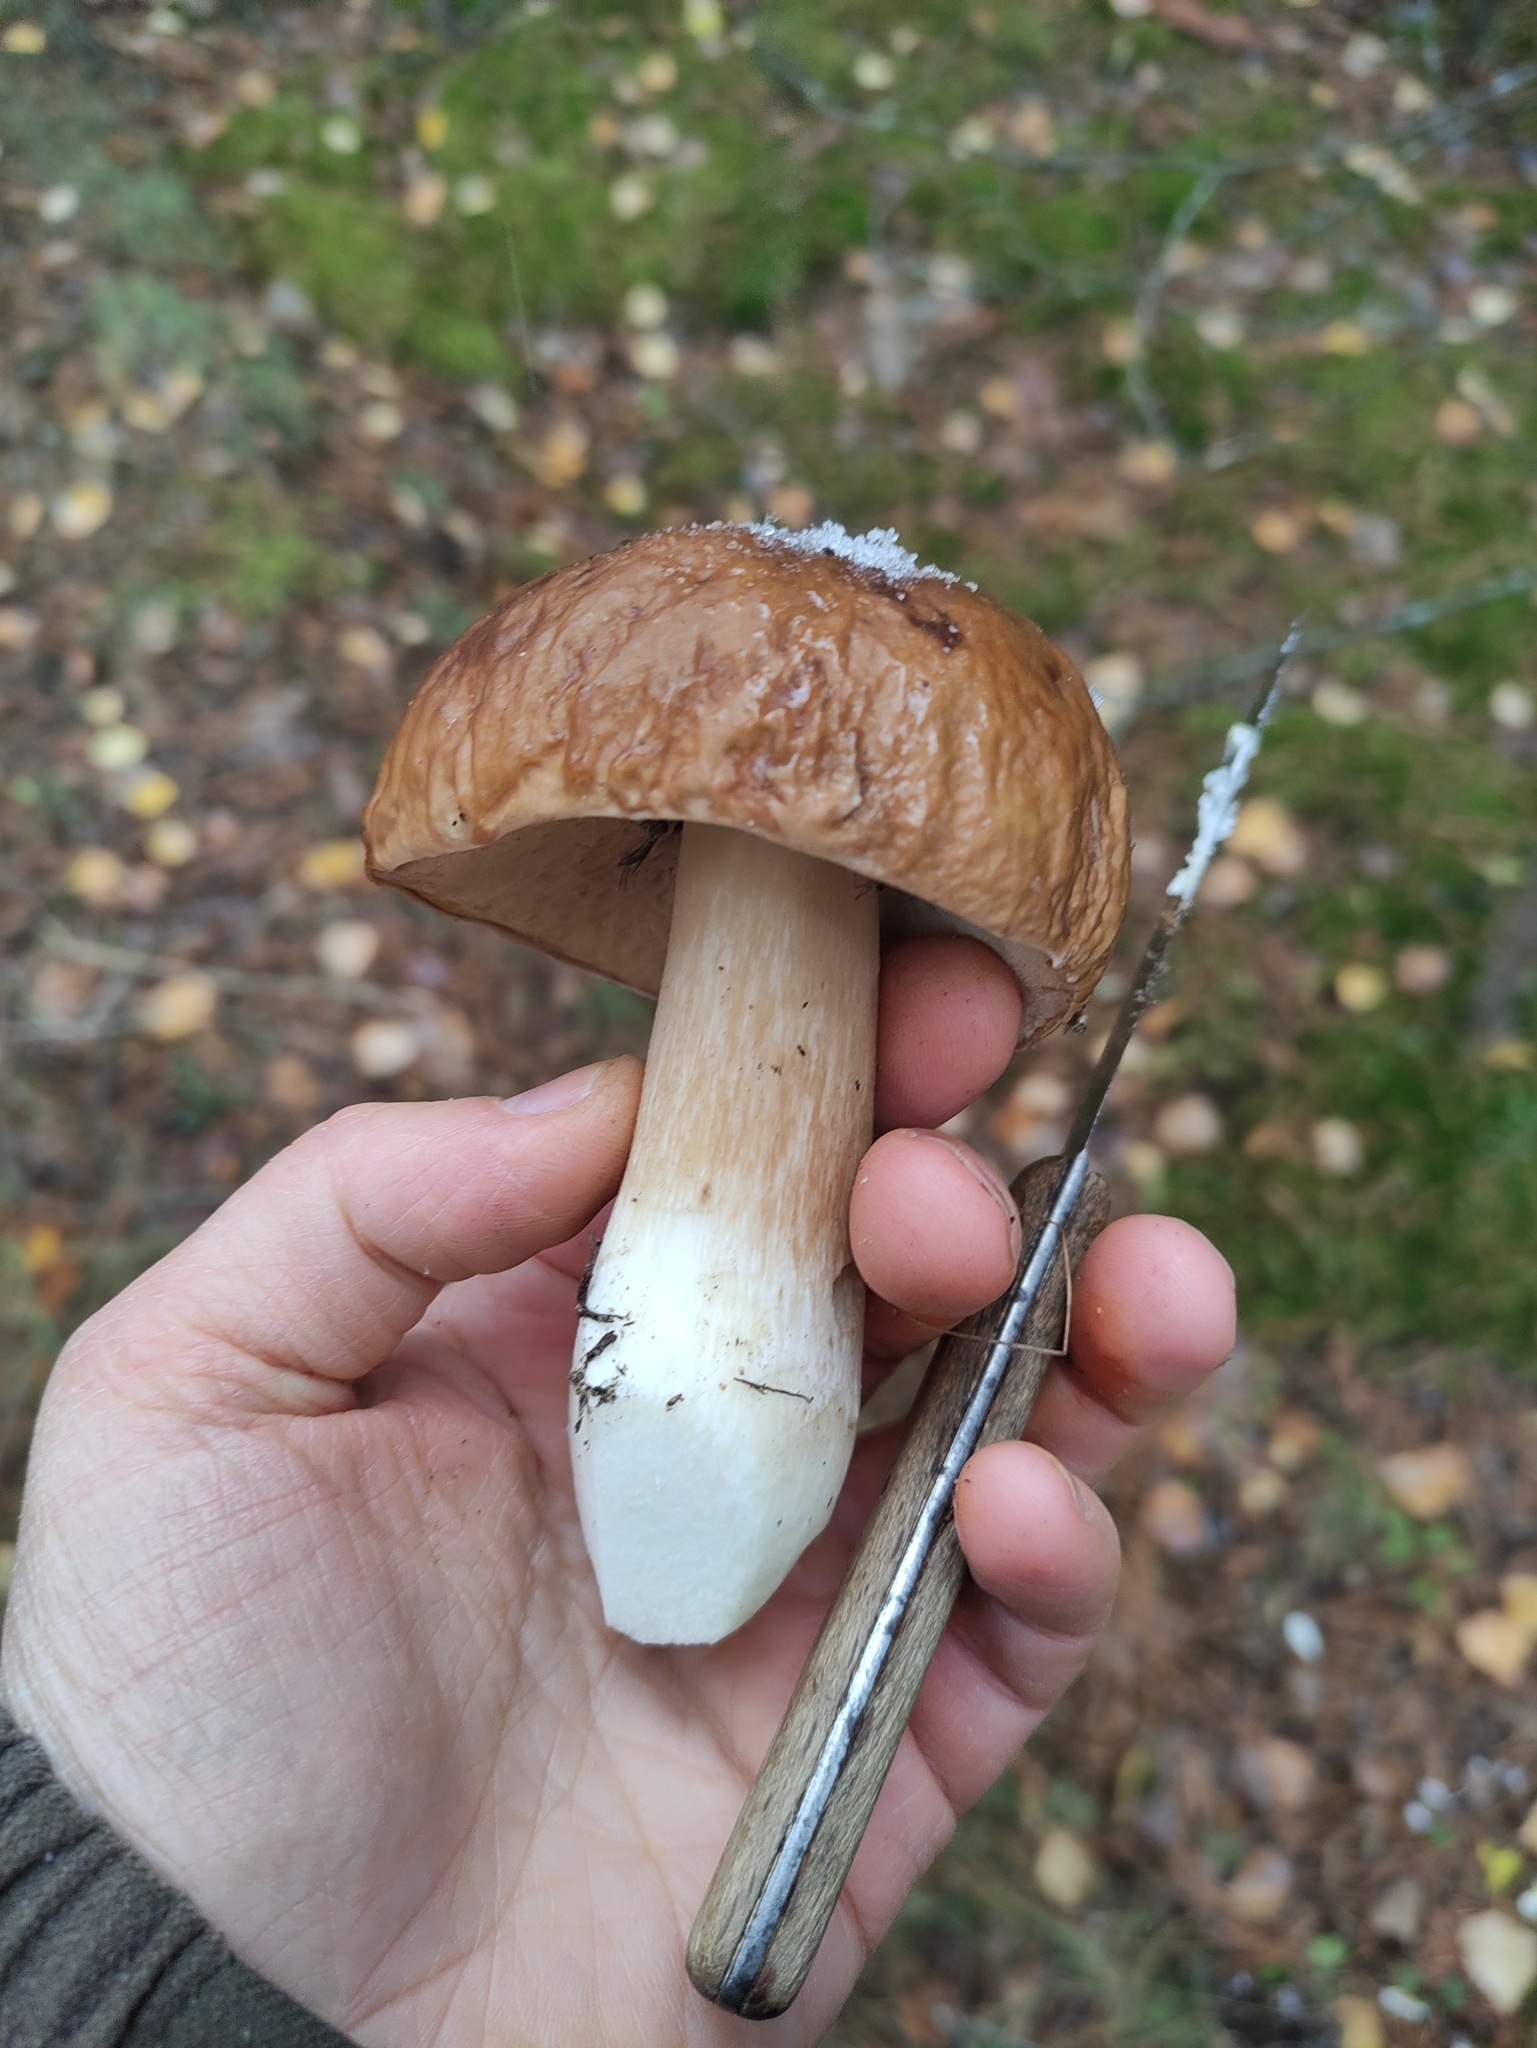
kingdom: Fungi
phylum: Basidiomycota
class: Agaricomycetes
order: Boletales
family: Boletaceae
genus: Boletus
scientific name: Boletus edulis
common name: Cep
